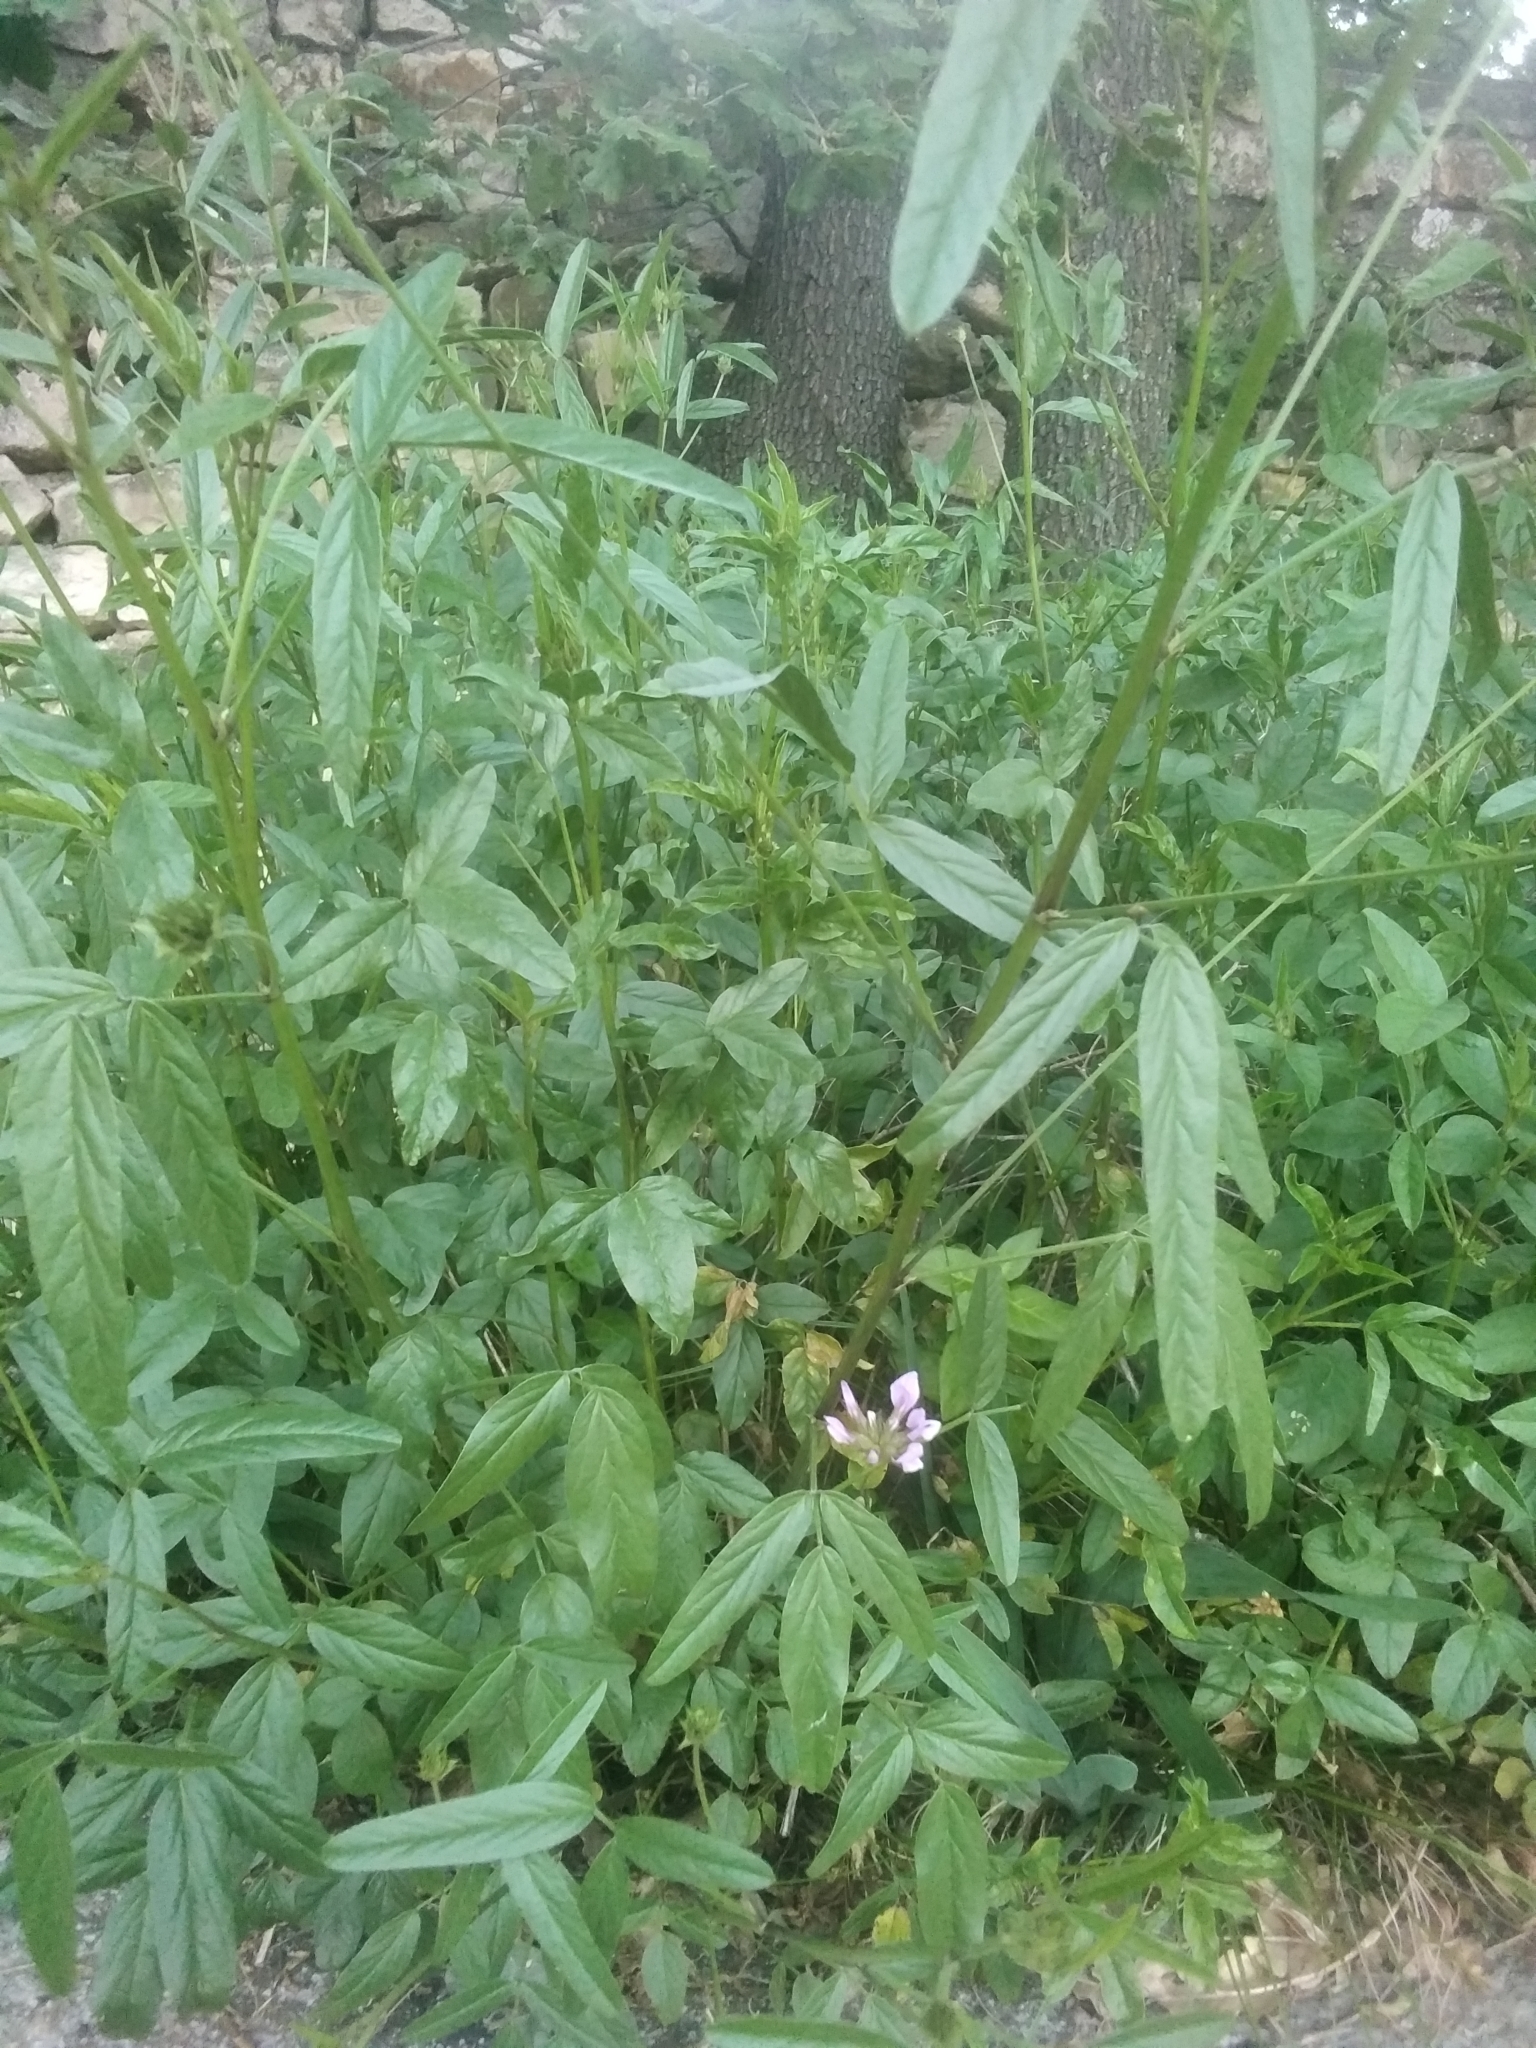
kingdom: Plantae
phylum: Tracheophyta
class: Magnoliopsida
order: Fabales
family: Fabaceae
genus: Bituminaria
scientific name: Bituminaria bituminosa
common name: Arabian pea
